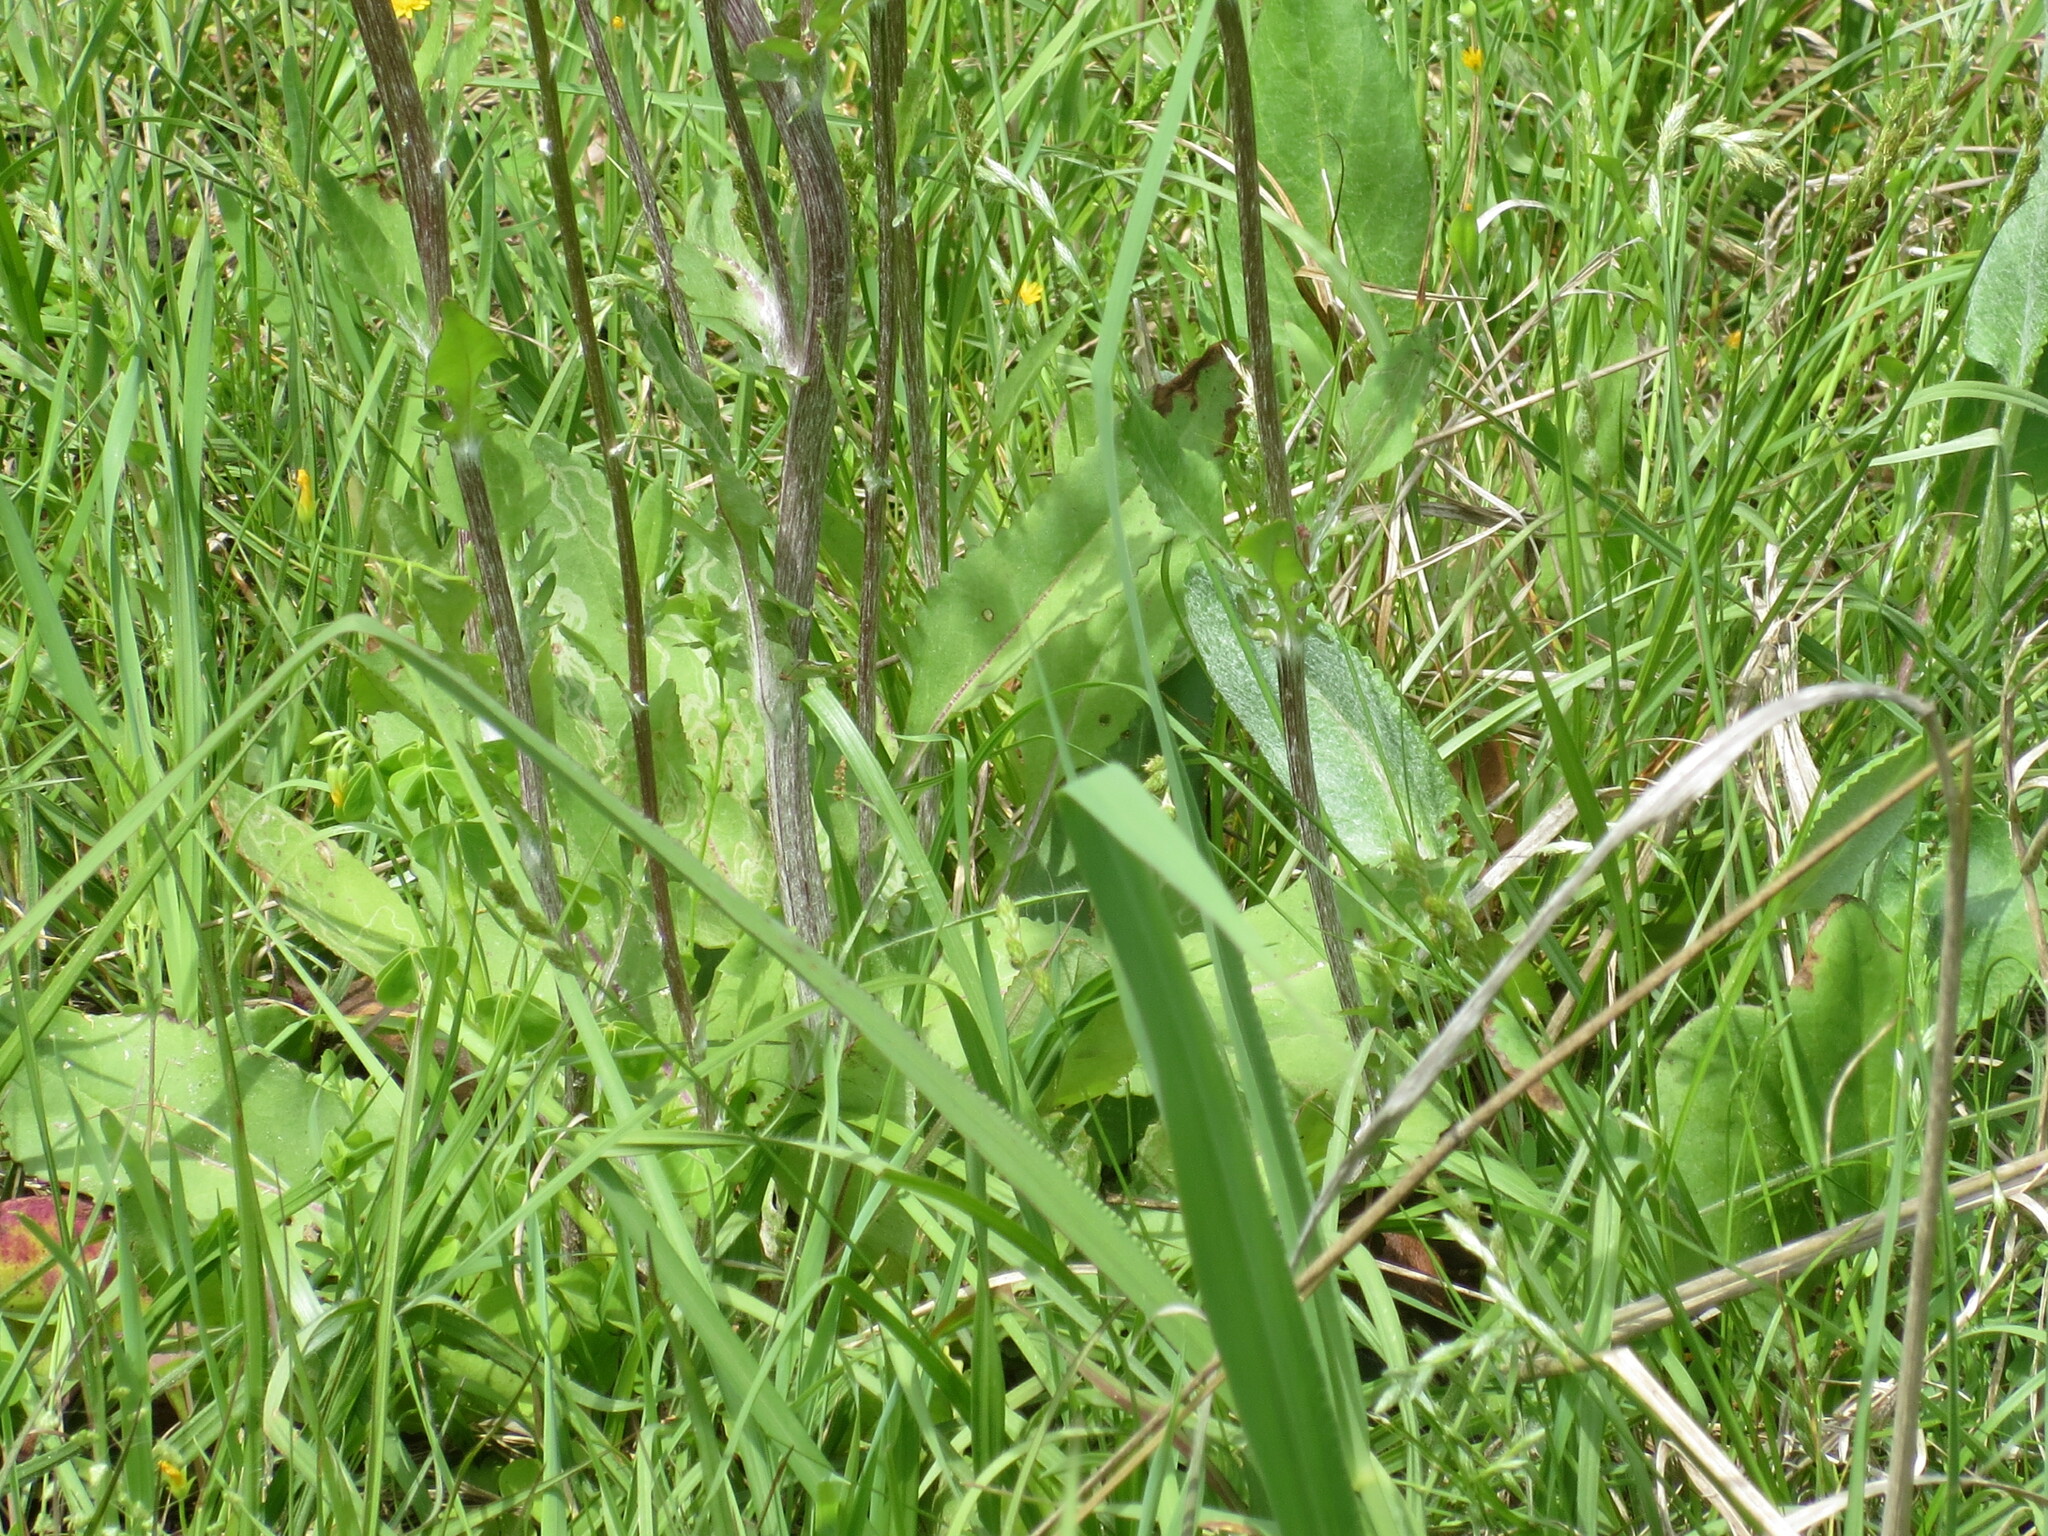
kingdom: Plantae
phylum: Tracheophyta
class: Magnoliopsida
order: Asterales
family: Asteraceae
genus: Packera
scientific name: Packera dubia
